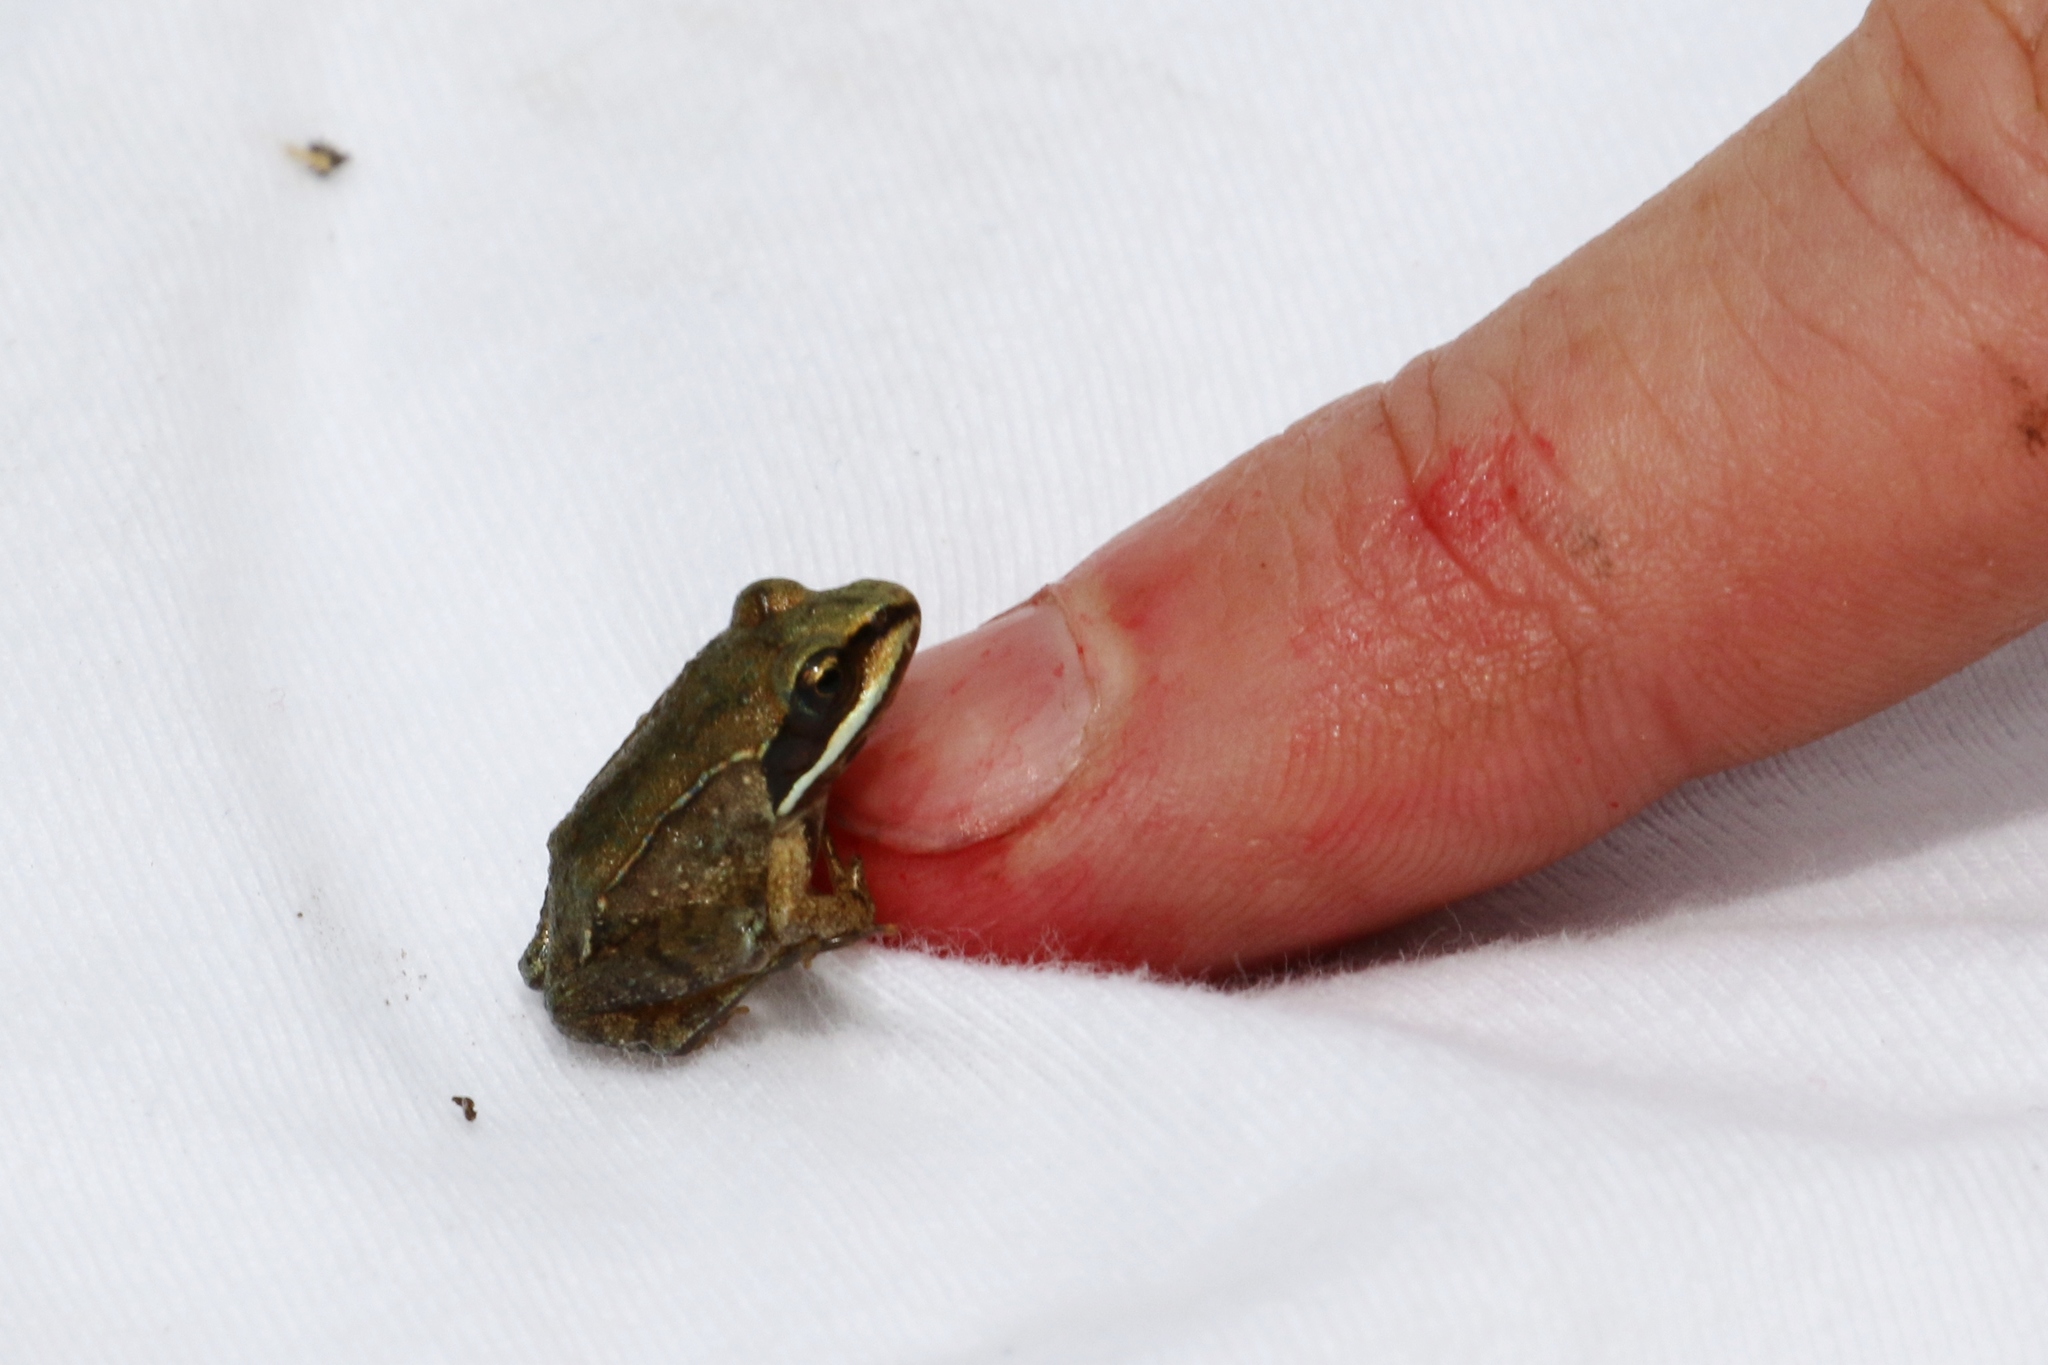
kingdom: Animalia
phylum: Chordata
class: Amphibia
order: Anura
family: Ranidae
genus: Lithobates
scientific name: Lithobates sylvaticus
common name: Wood frog
